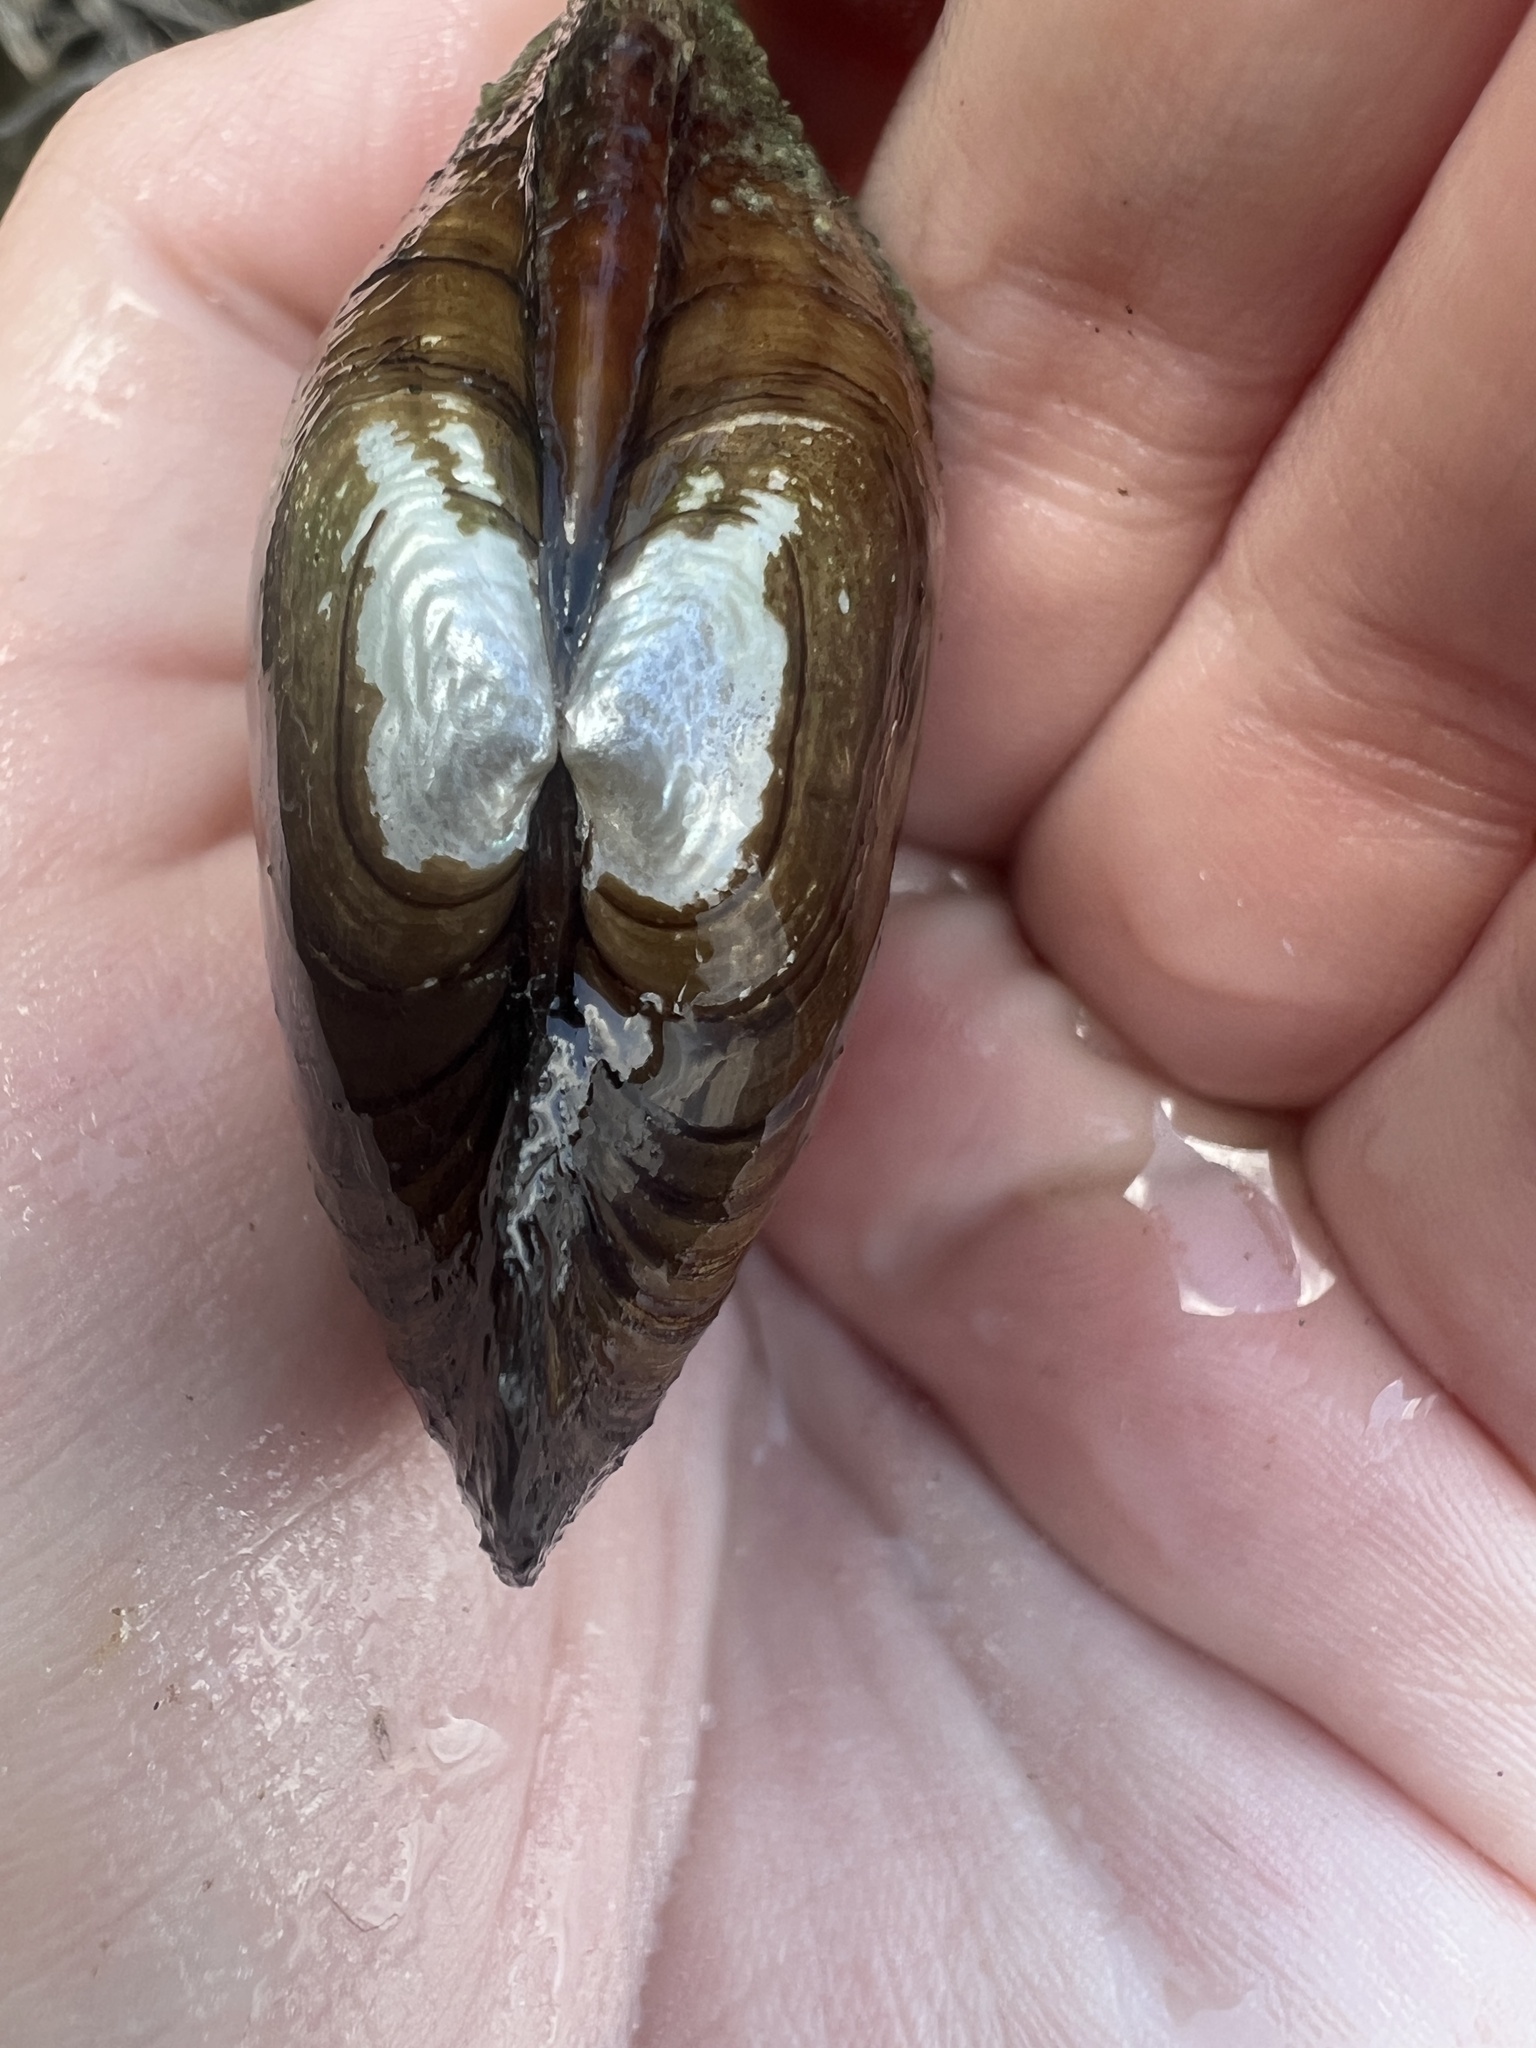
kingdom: Animalia
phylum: Mollusca
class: Bivalvia
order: Unionida
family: Unionidae
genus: Lampsilis
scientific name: Lampsilis siliquoidea
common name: Fatmucket
